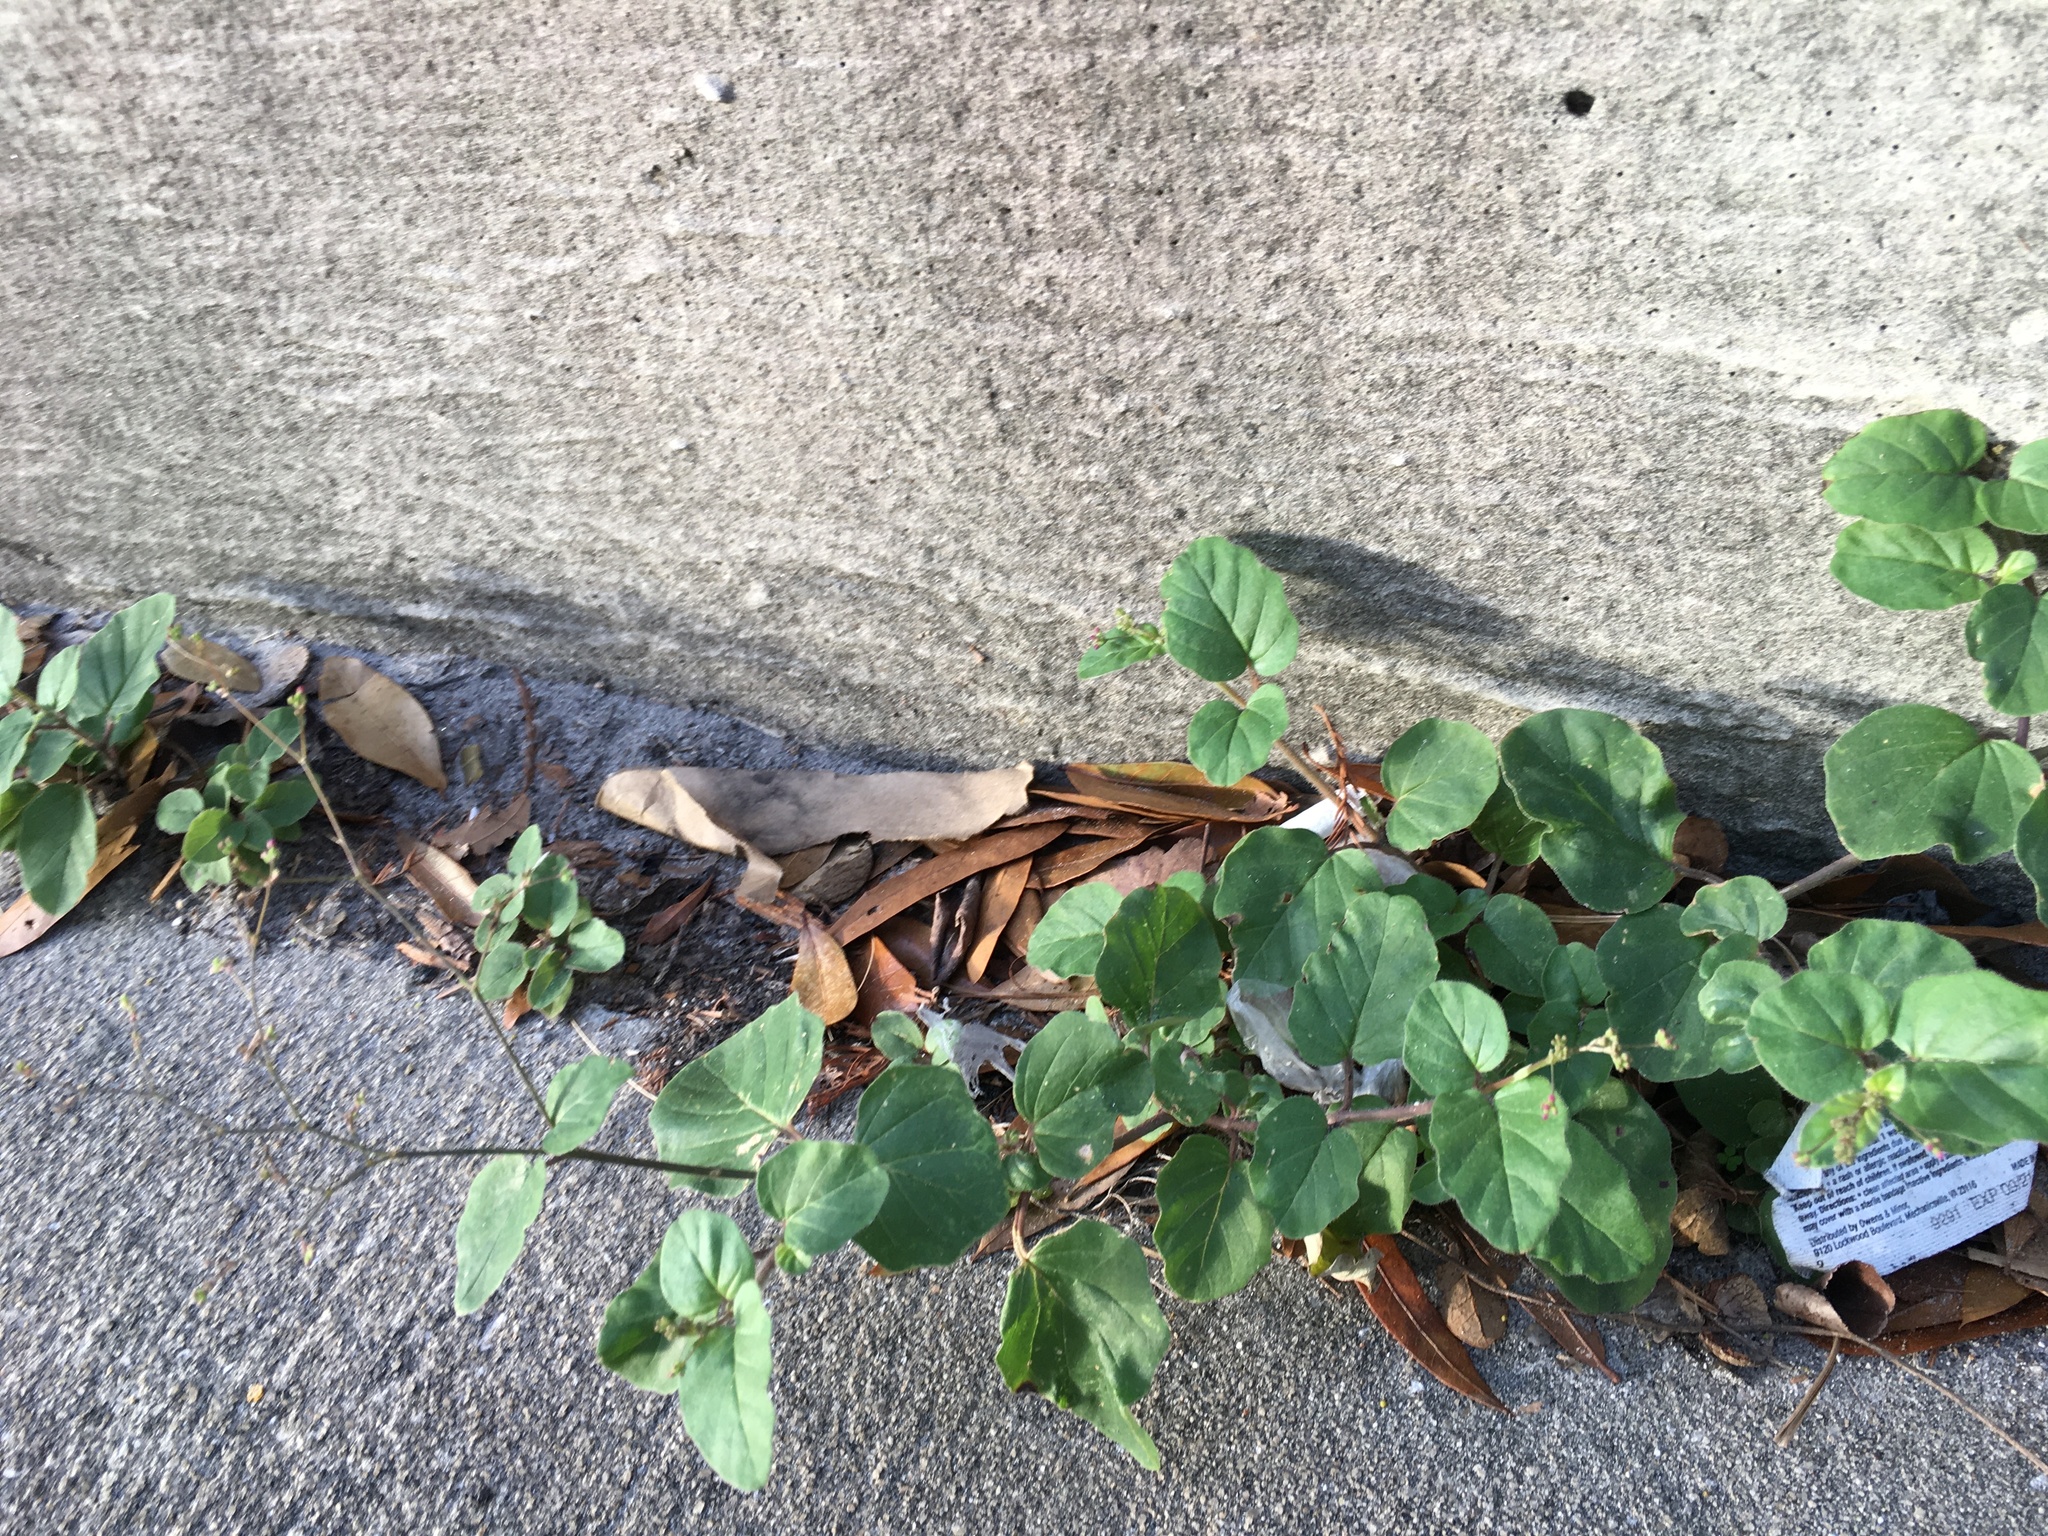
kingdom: Plantae
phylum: Tracheophyta
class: Magnoliopsida
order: Caryophyllales
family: Nyctaginaceae
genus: Boerhavia
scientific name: Boerhavia diffusa
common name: Red spiderling
